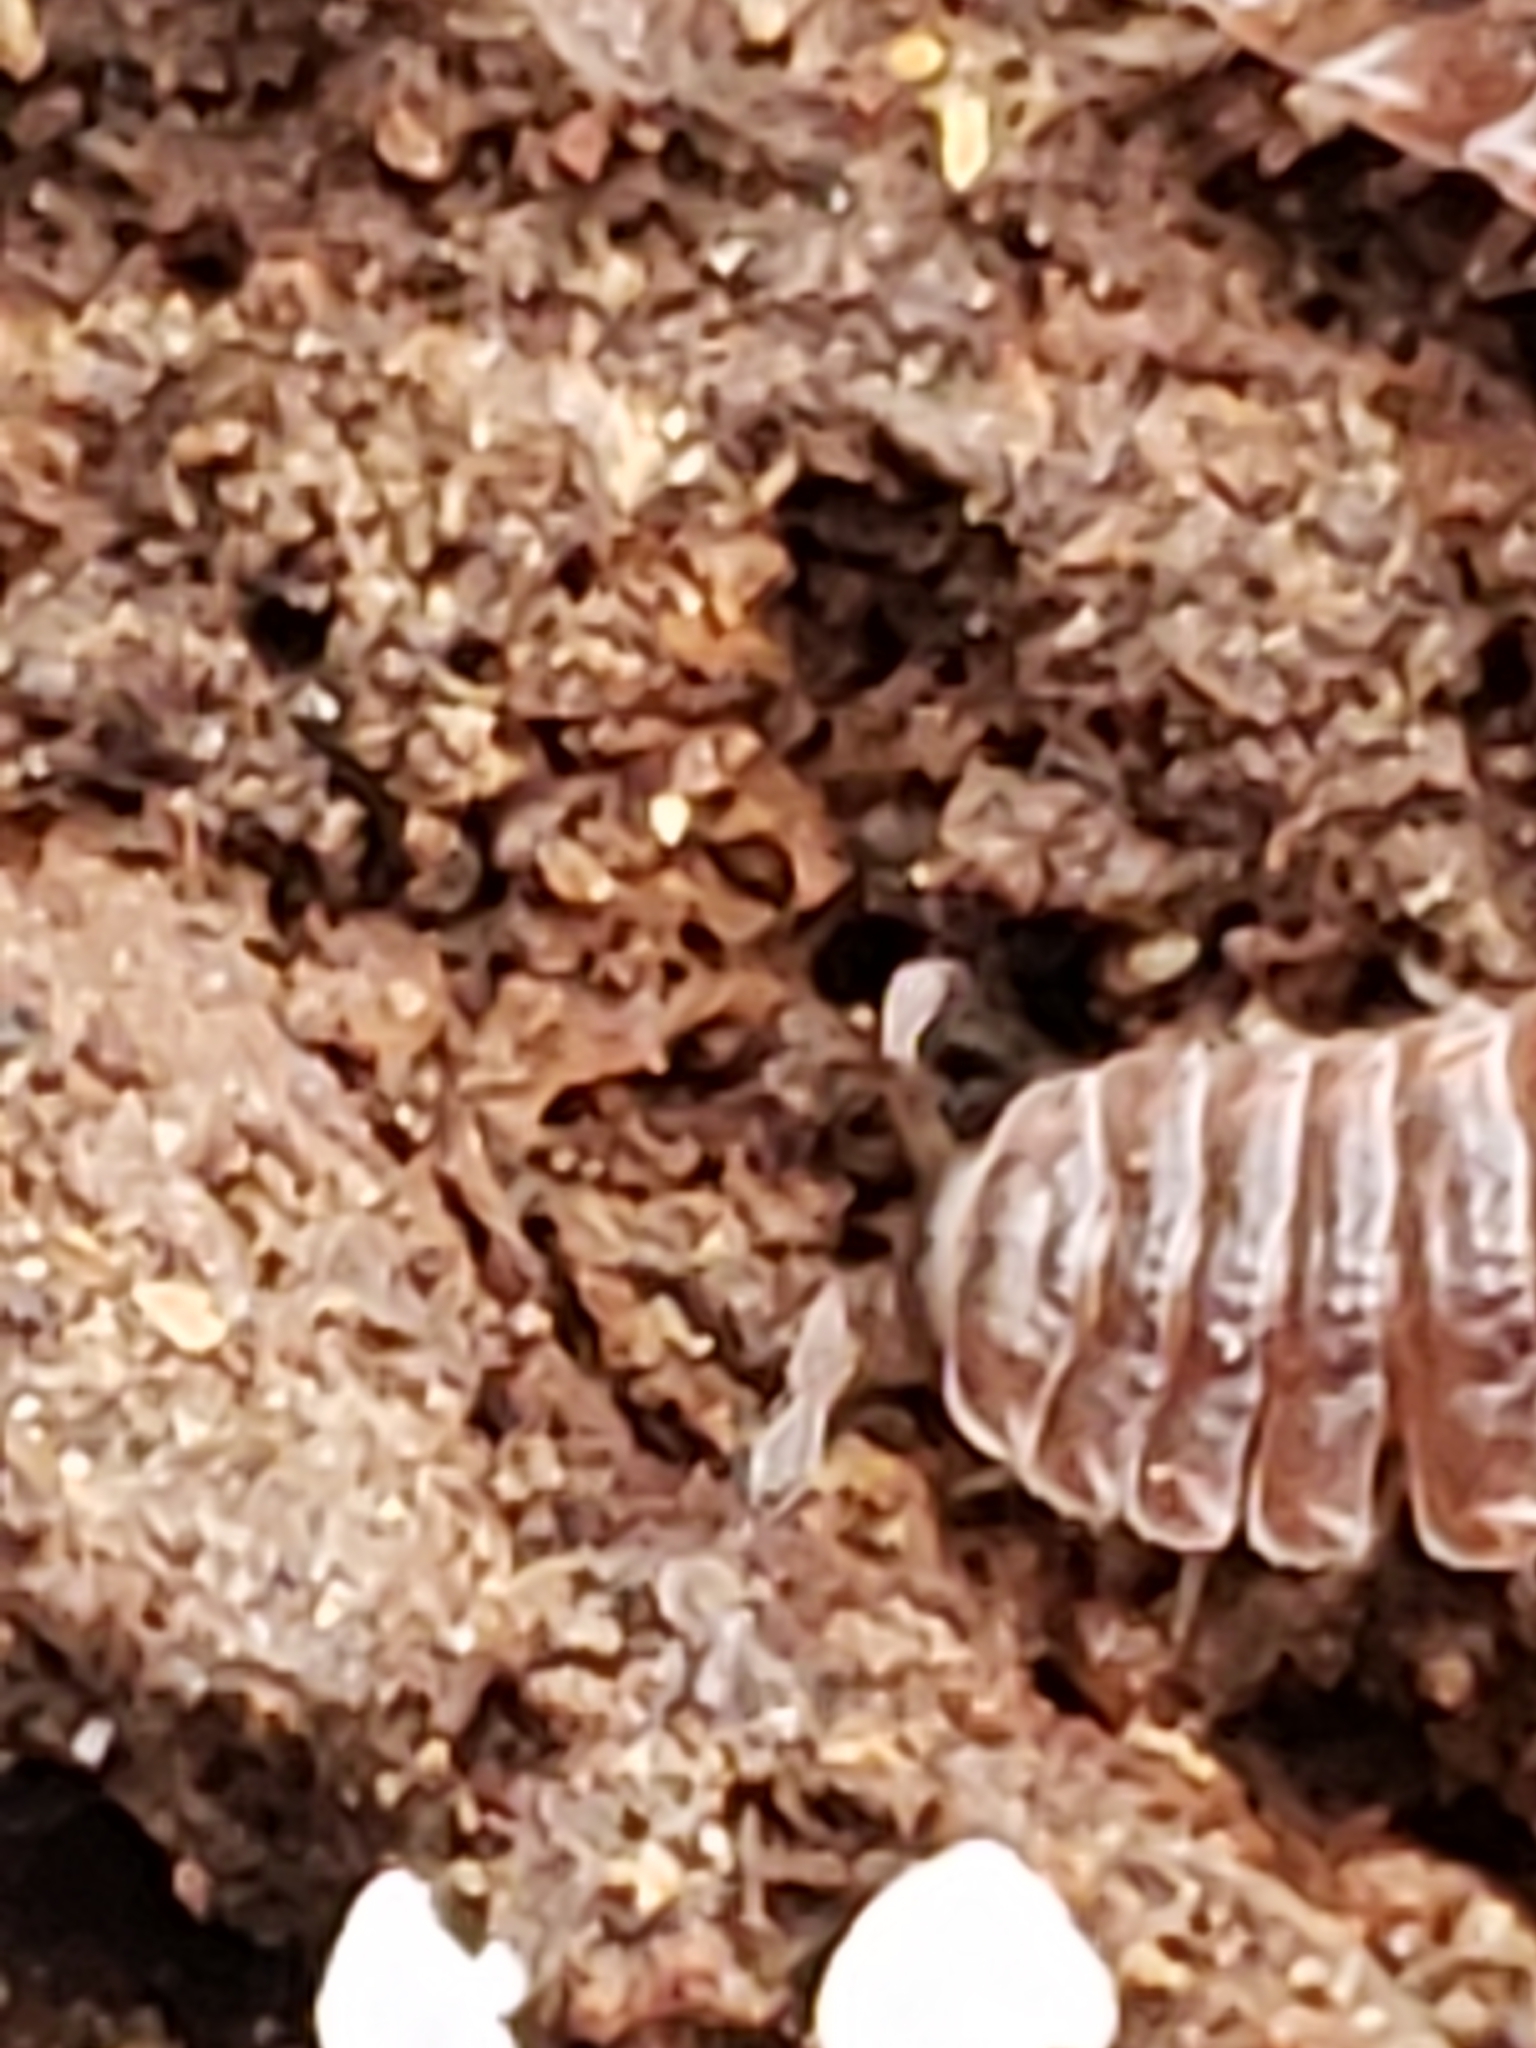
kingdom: Animalia
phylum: Arthropoda
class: Diplopoda
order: Polydesmida
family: Polydesmidae
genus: Pseudopolydesmus
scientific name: Pseudopolydesmus serratus
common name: Common pink flat-back millipede
